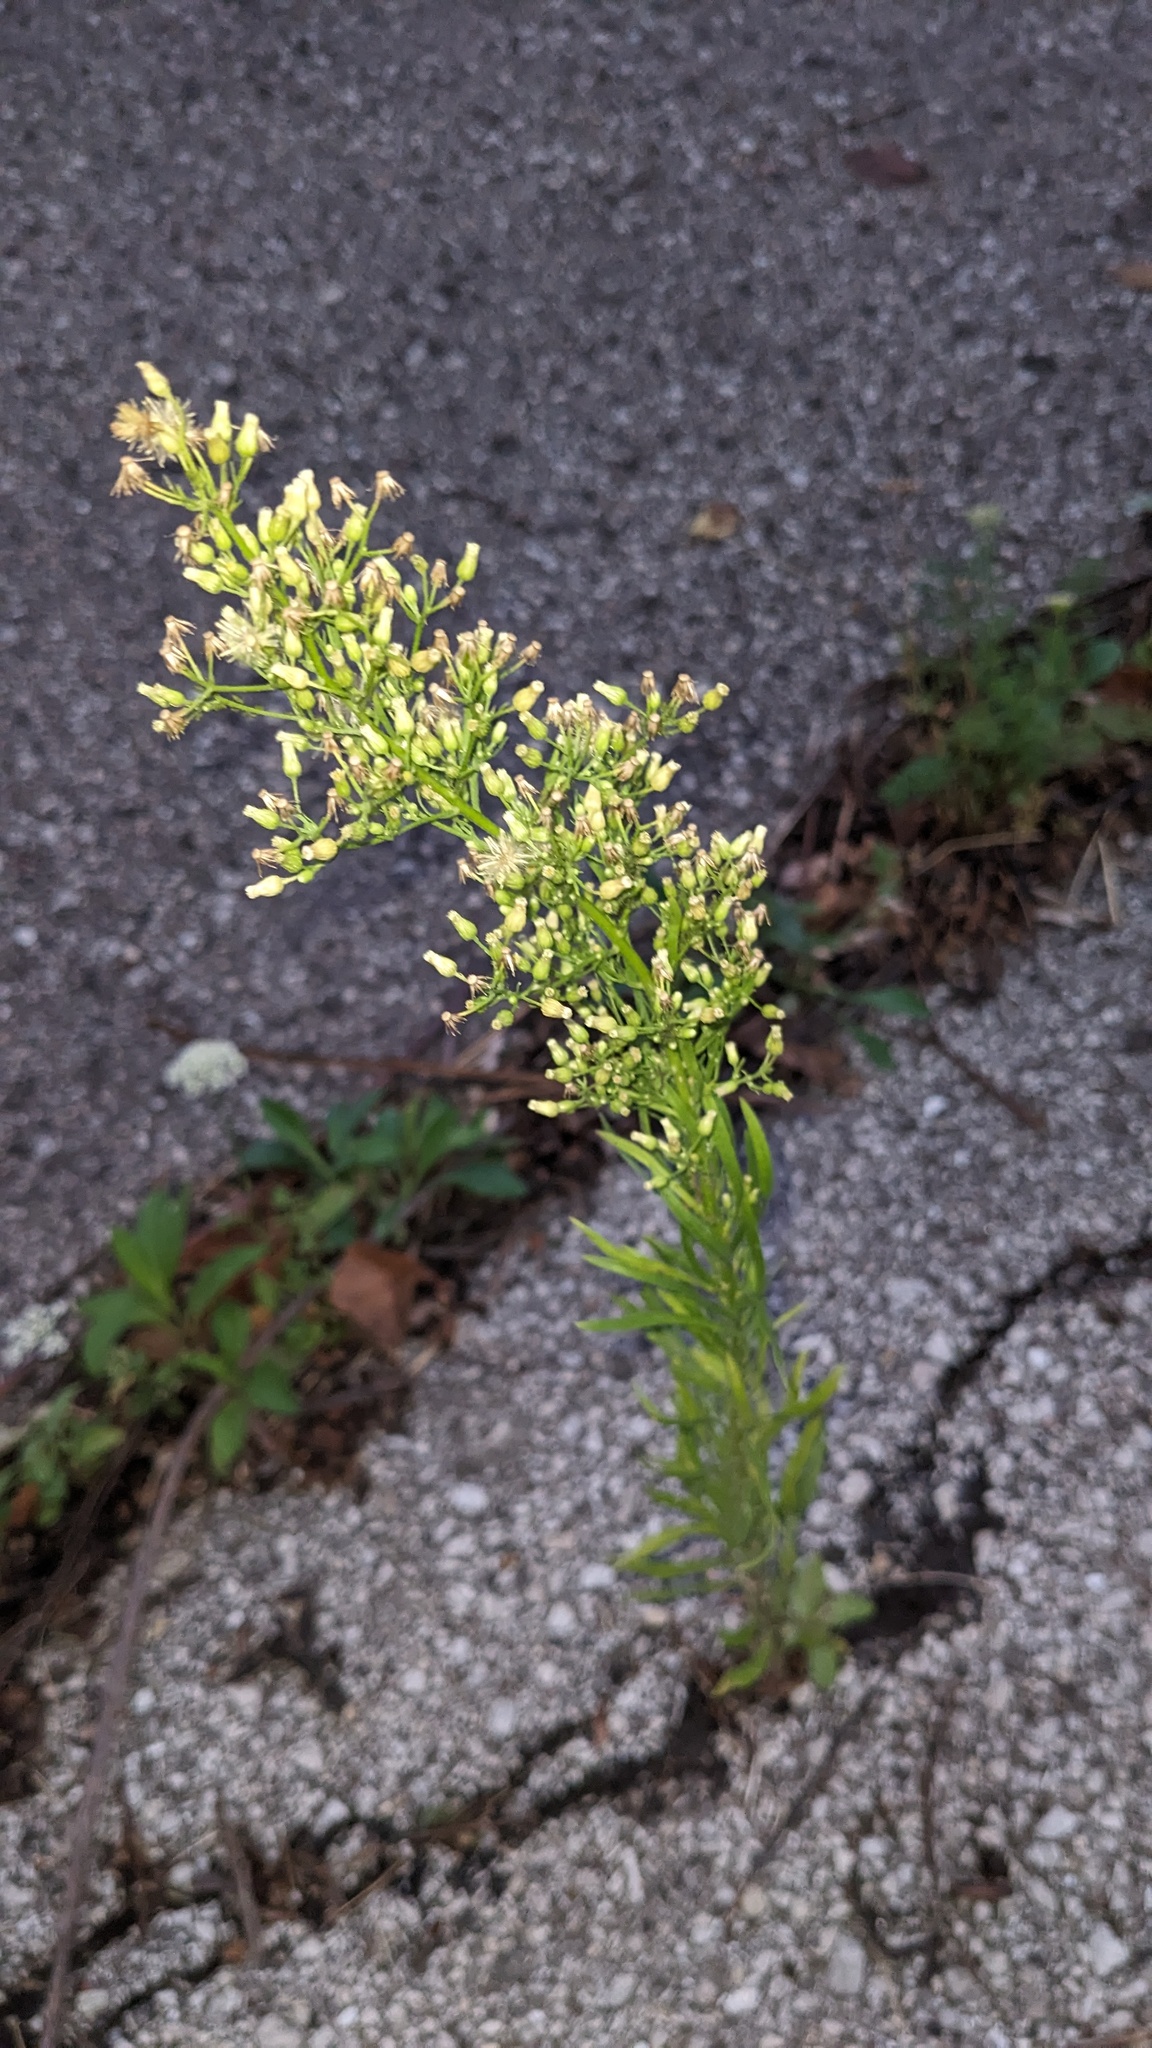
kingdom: Plantae
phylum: Tracheophyta
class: Magnoliopsida
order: Asterales
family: Asteraceae
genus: Erigeron
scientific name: Erigeron canadensis
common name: Canadian fleabane
